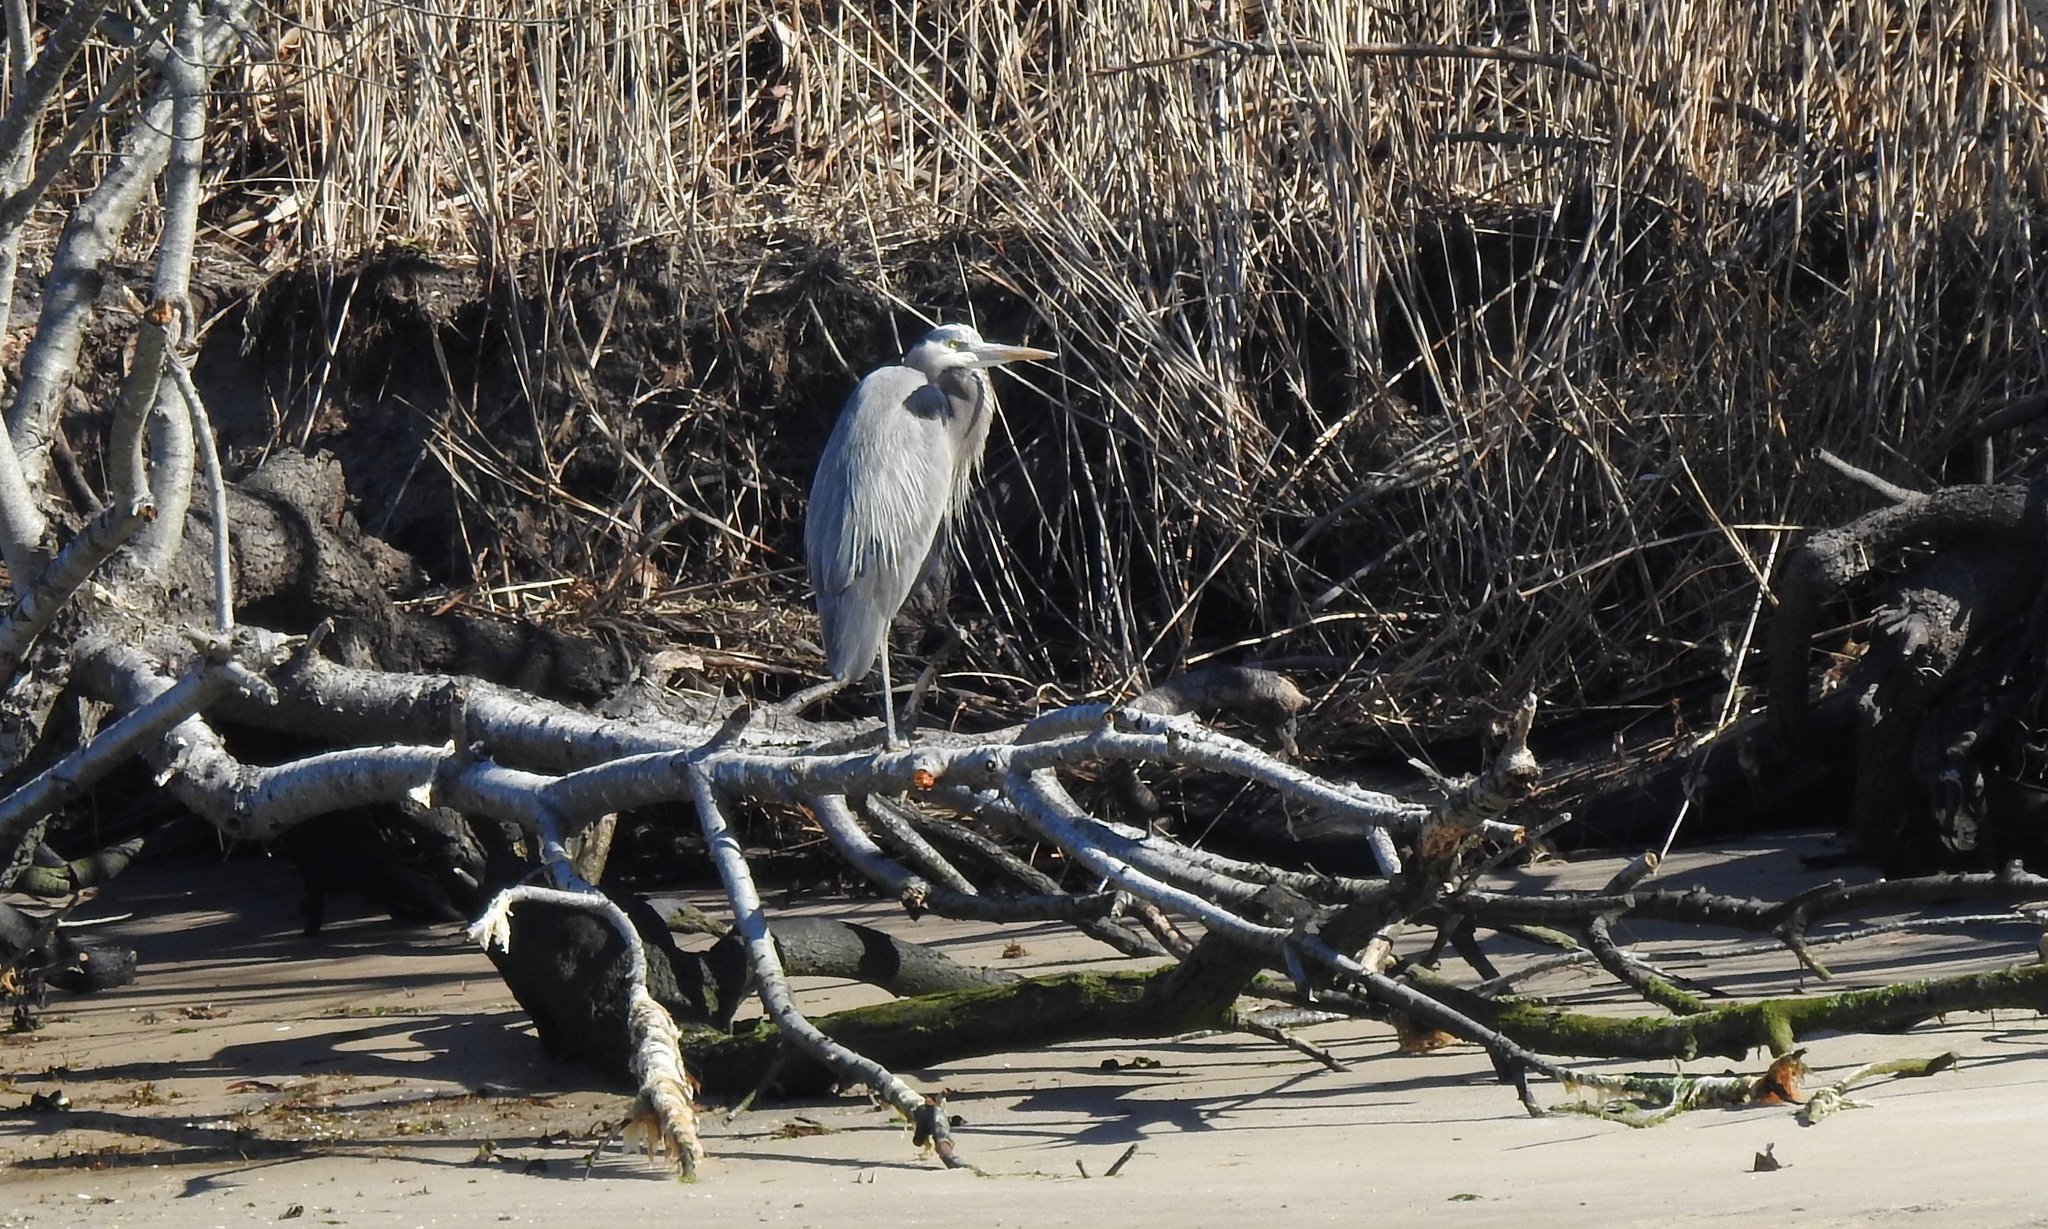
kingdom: Animalia
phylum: Chordata
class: Aves
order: Pelecaniformes
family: Ardeidae
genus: Ardea
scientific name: Ardea herodias
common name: Great blue heron
